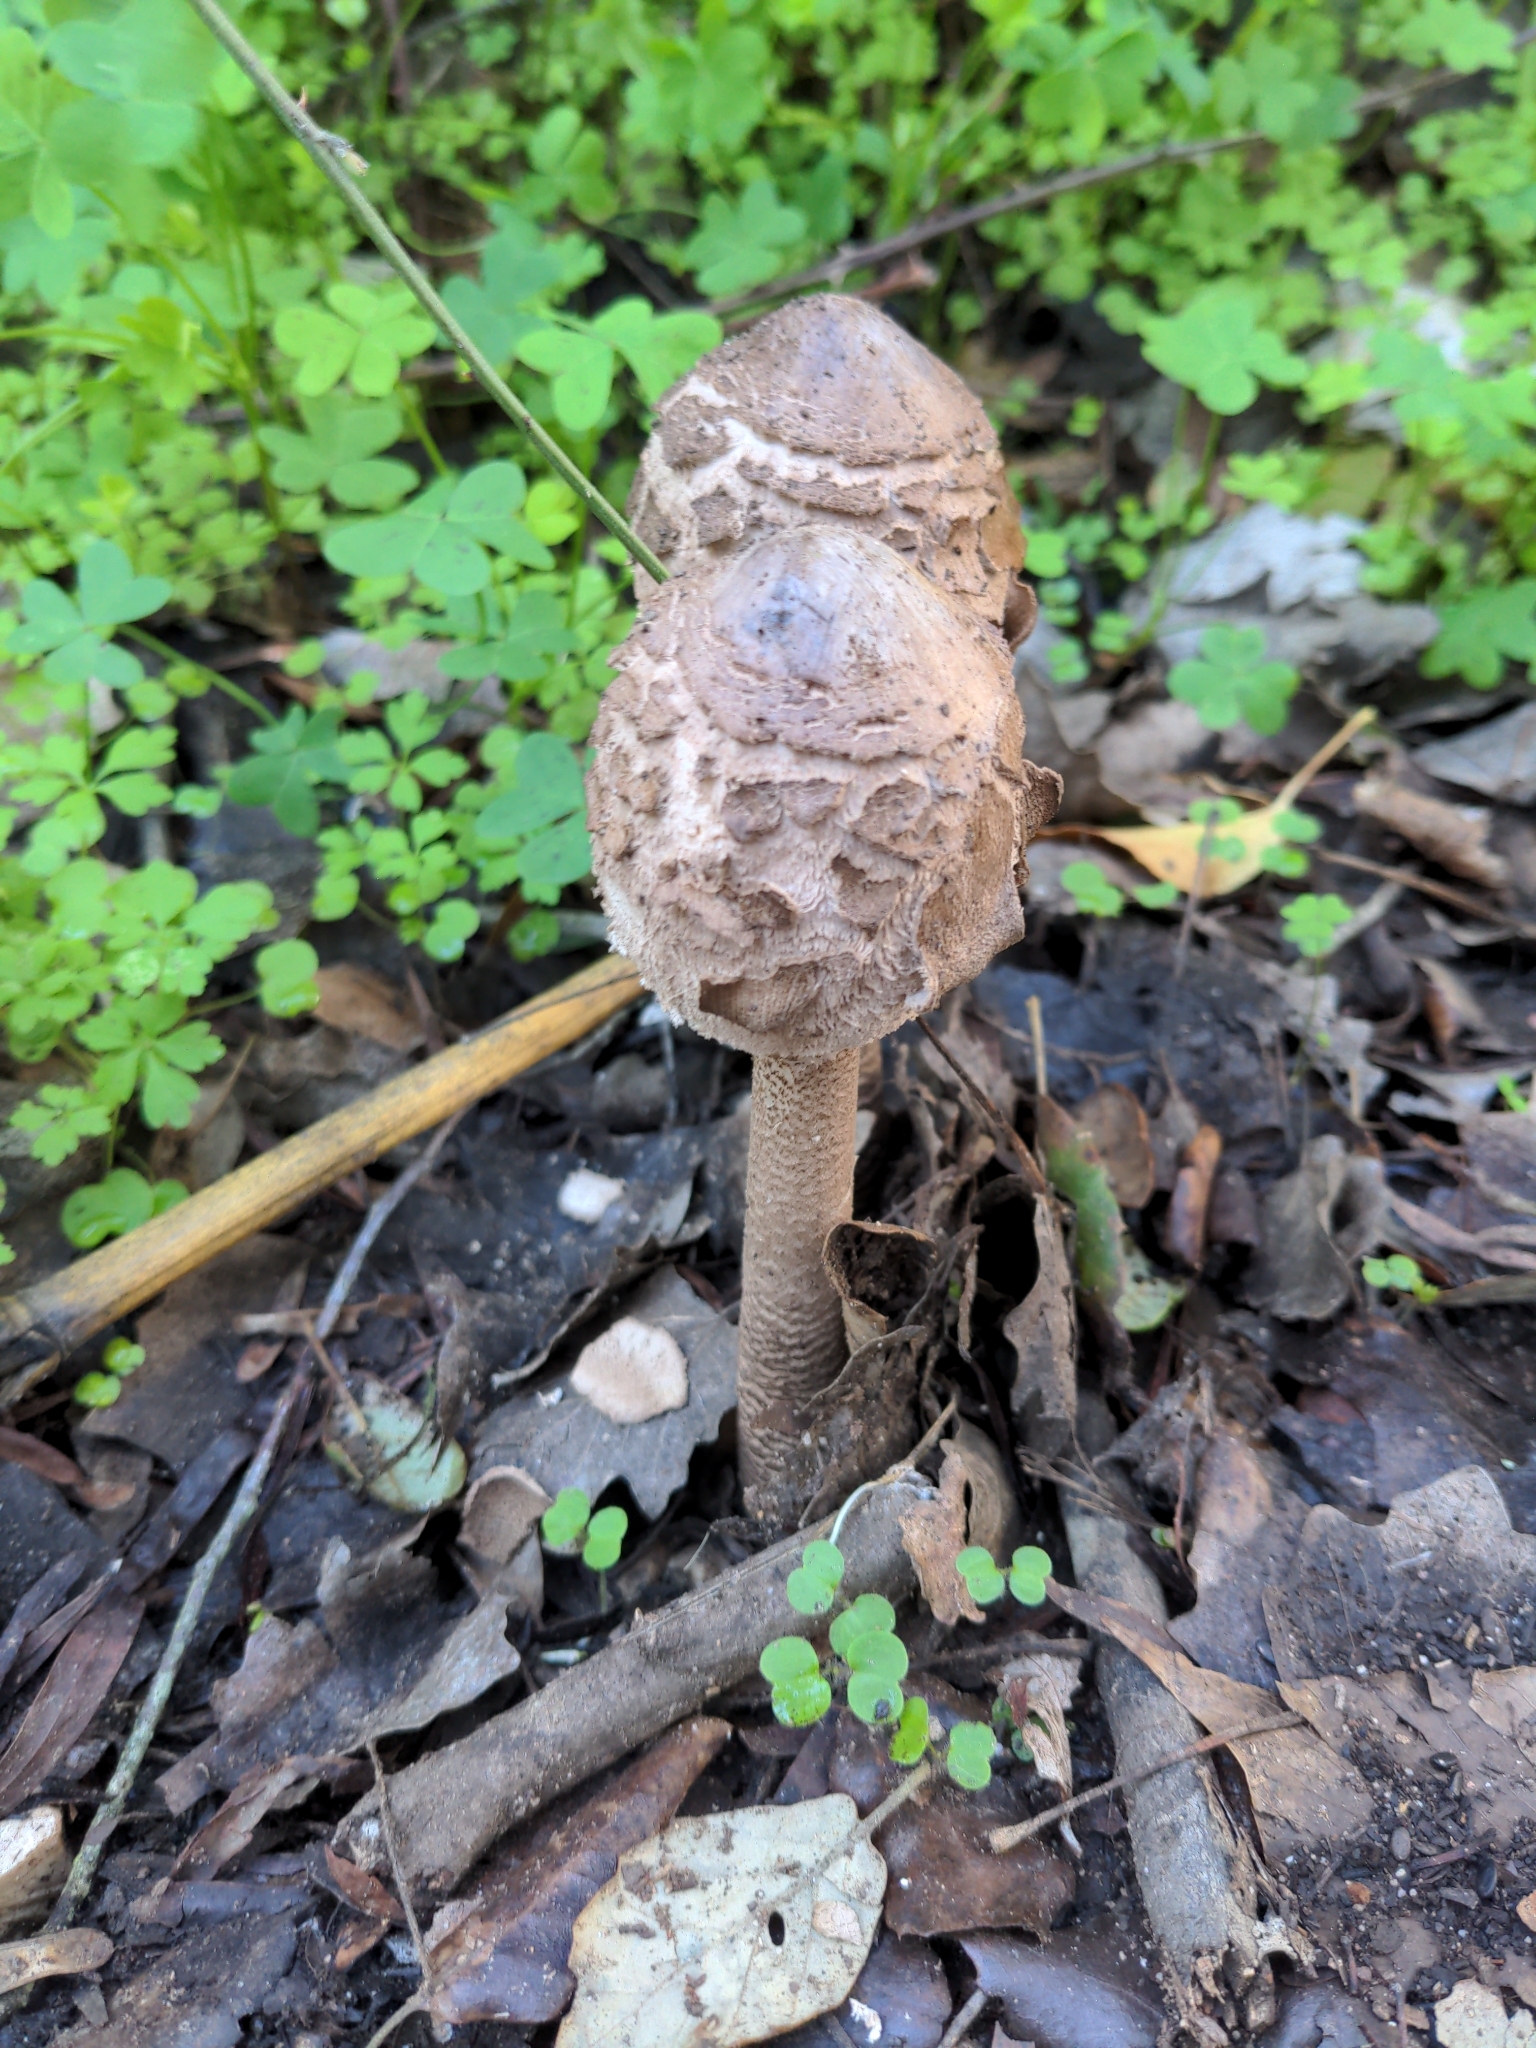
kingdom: Fungi
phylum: Basidiomycota
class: Agaricomycetes
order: Agaricales
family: Agaricaceae
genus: Macrolepiota
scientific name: Macrolepiota procera
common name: Parasol
